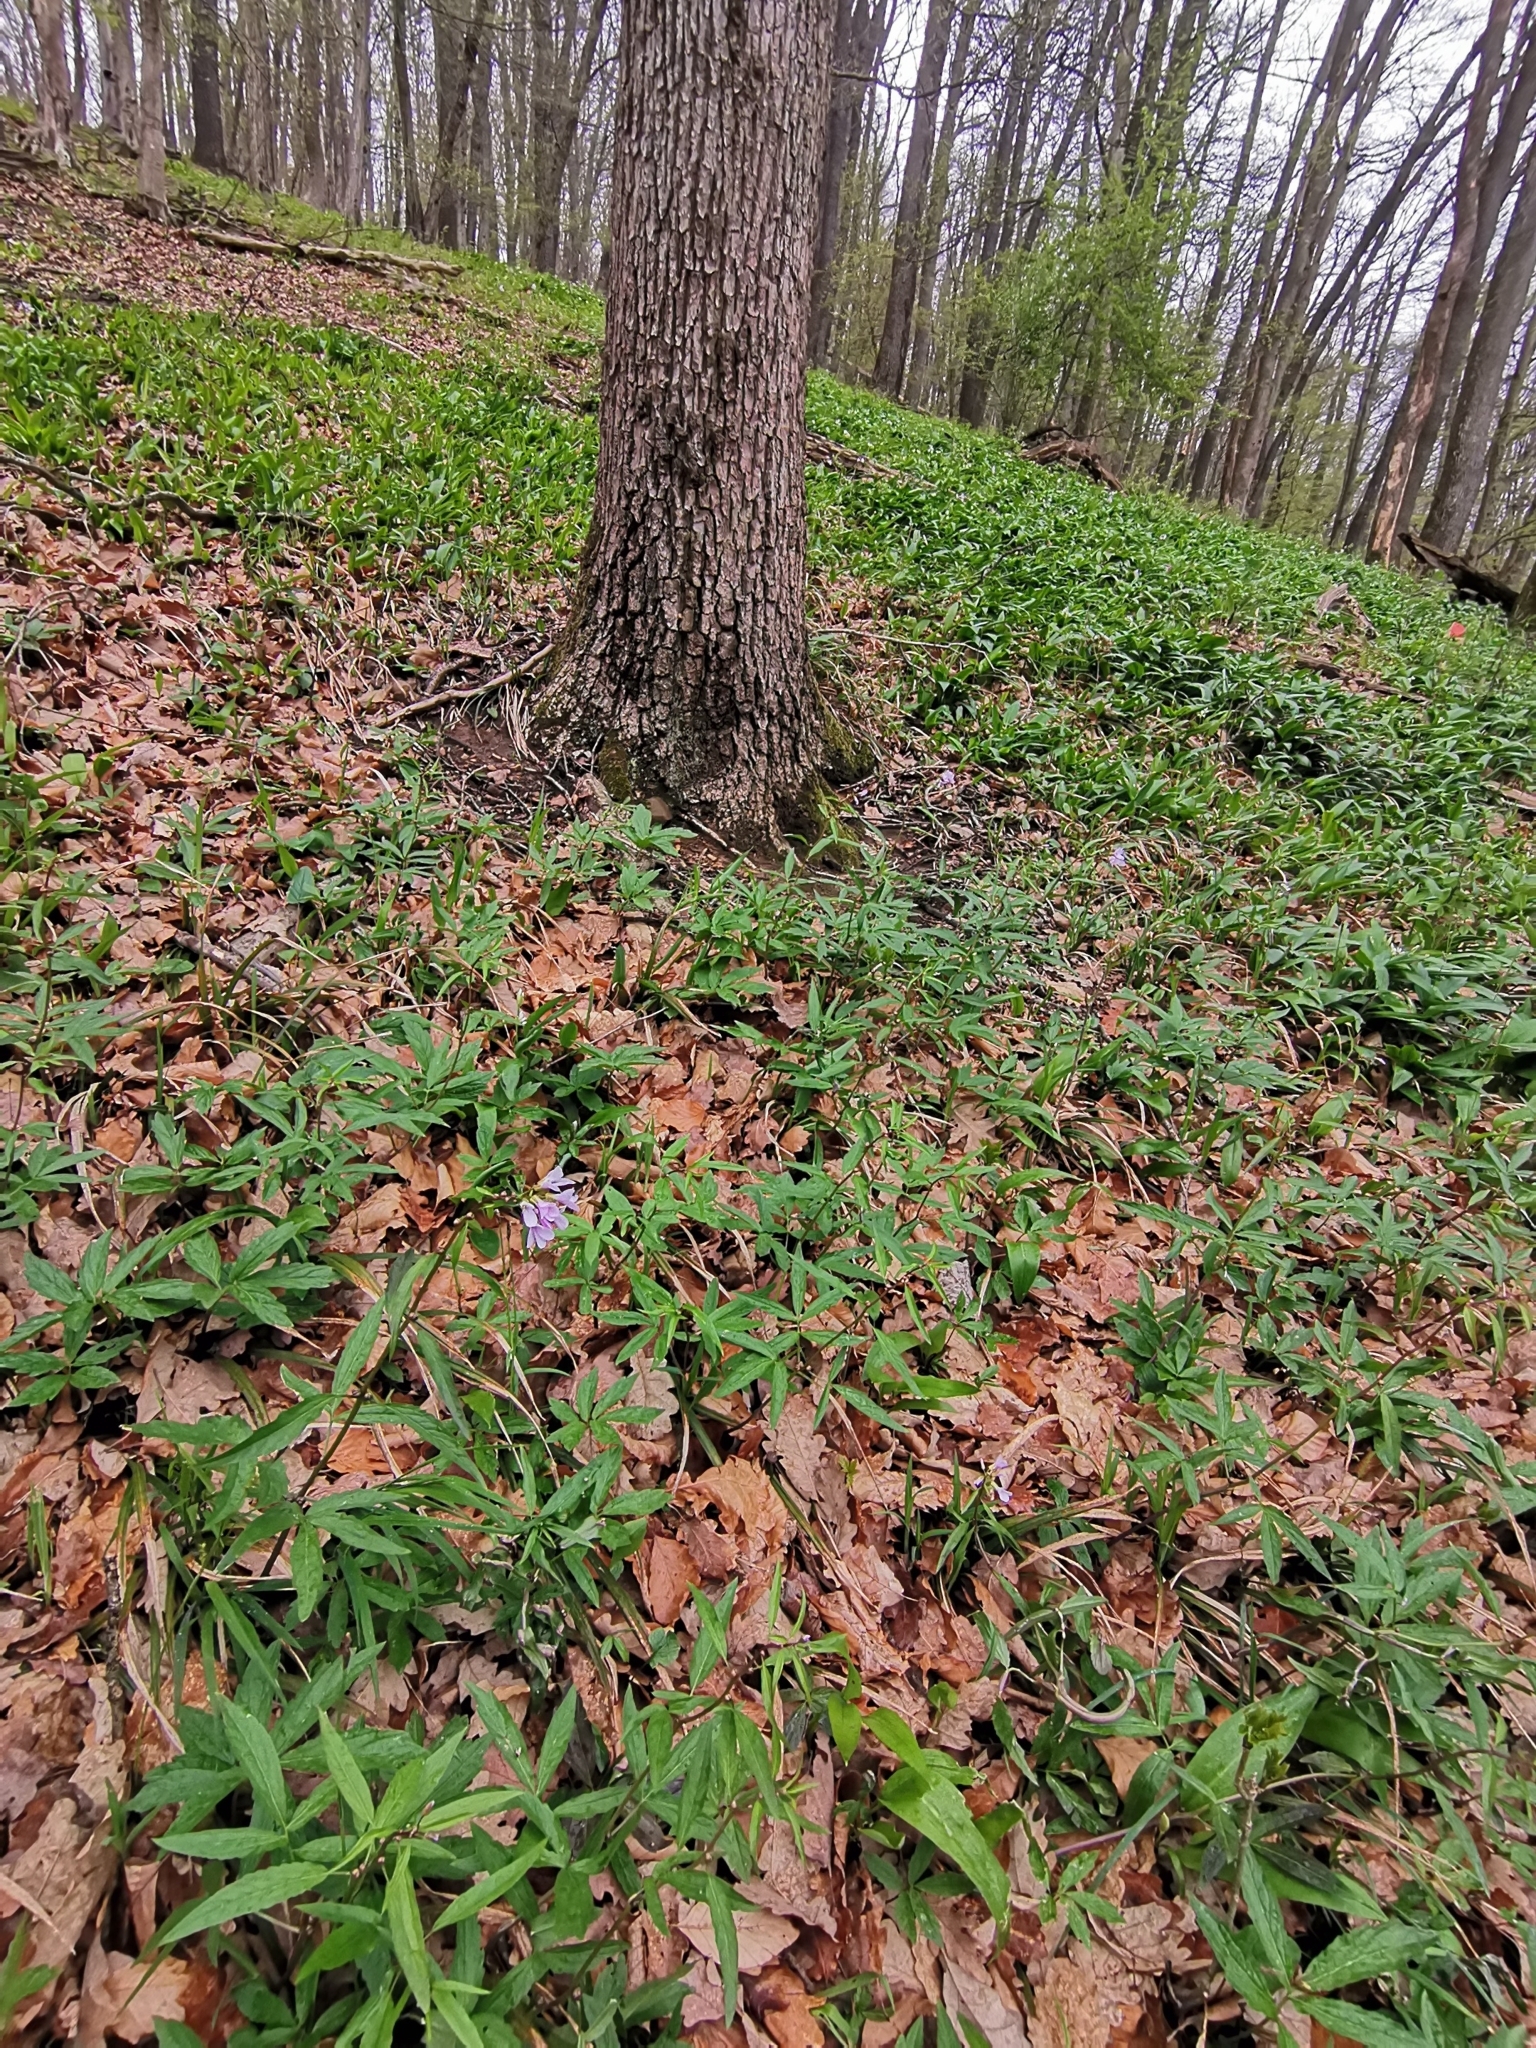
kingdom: Plantae
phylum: Tracheophyta
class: Magnoliopsida
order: Brassicales
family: Brassicaceae
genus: Cardamine
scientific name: Cardamine bulbifera
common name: Coralroot bittercress
